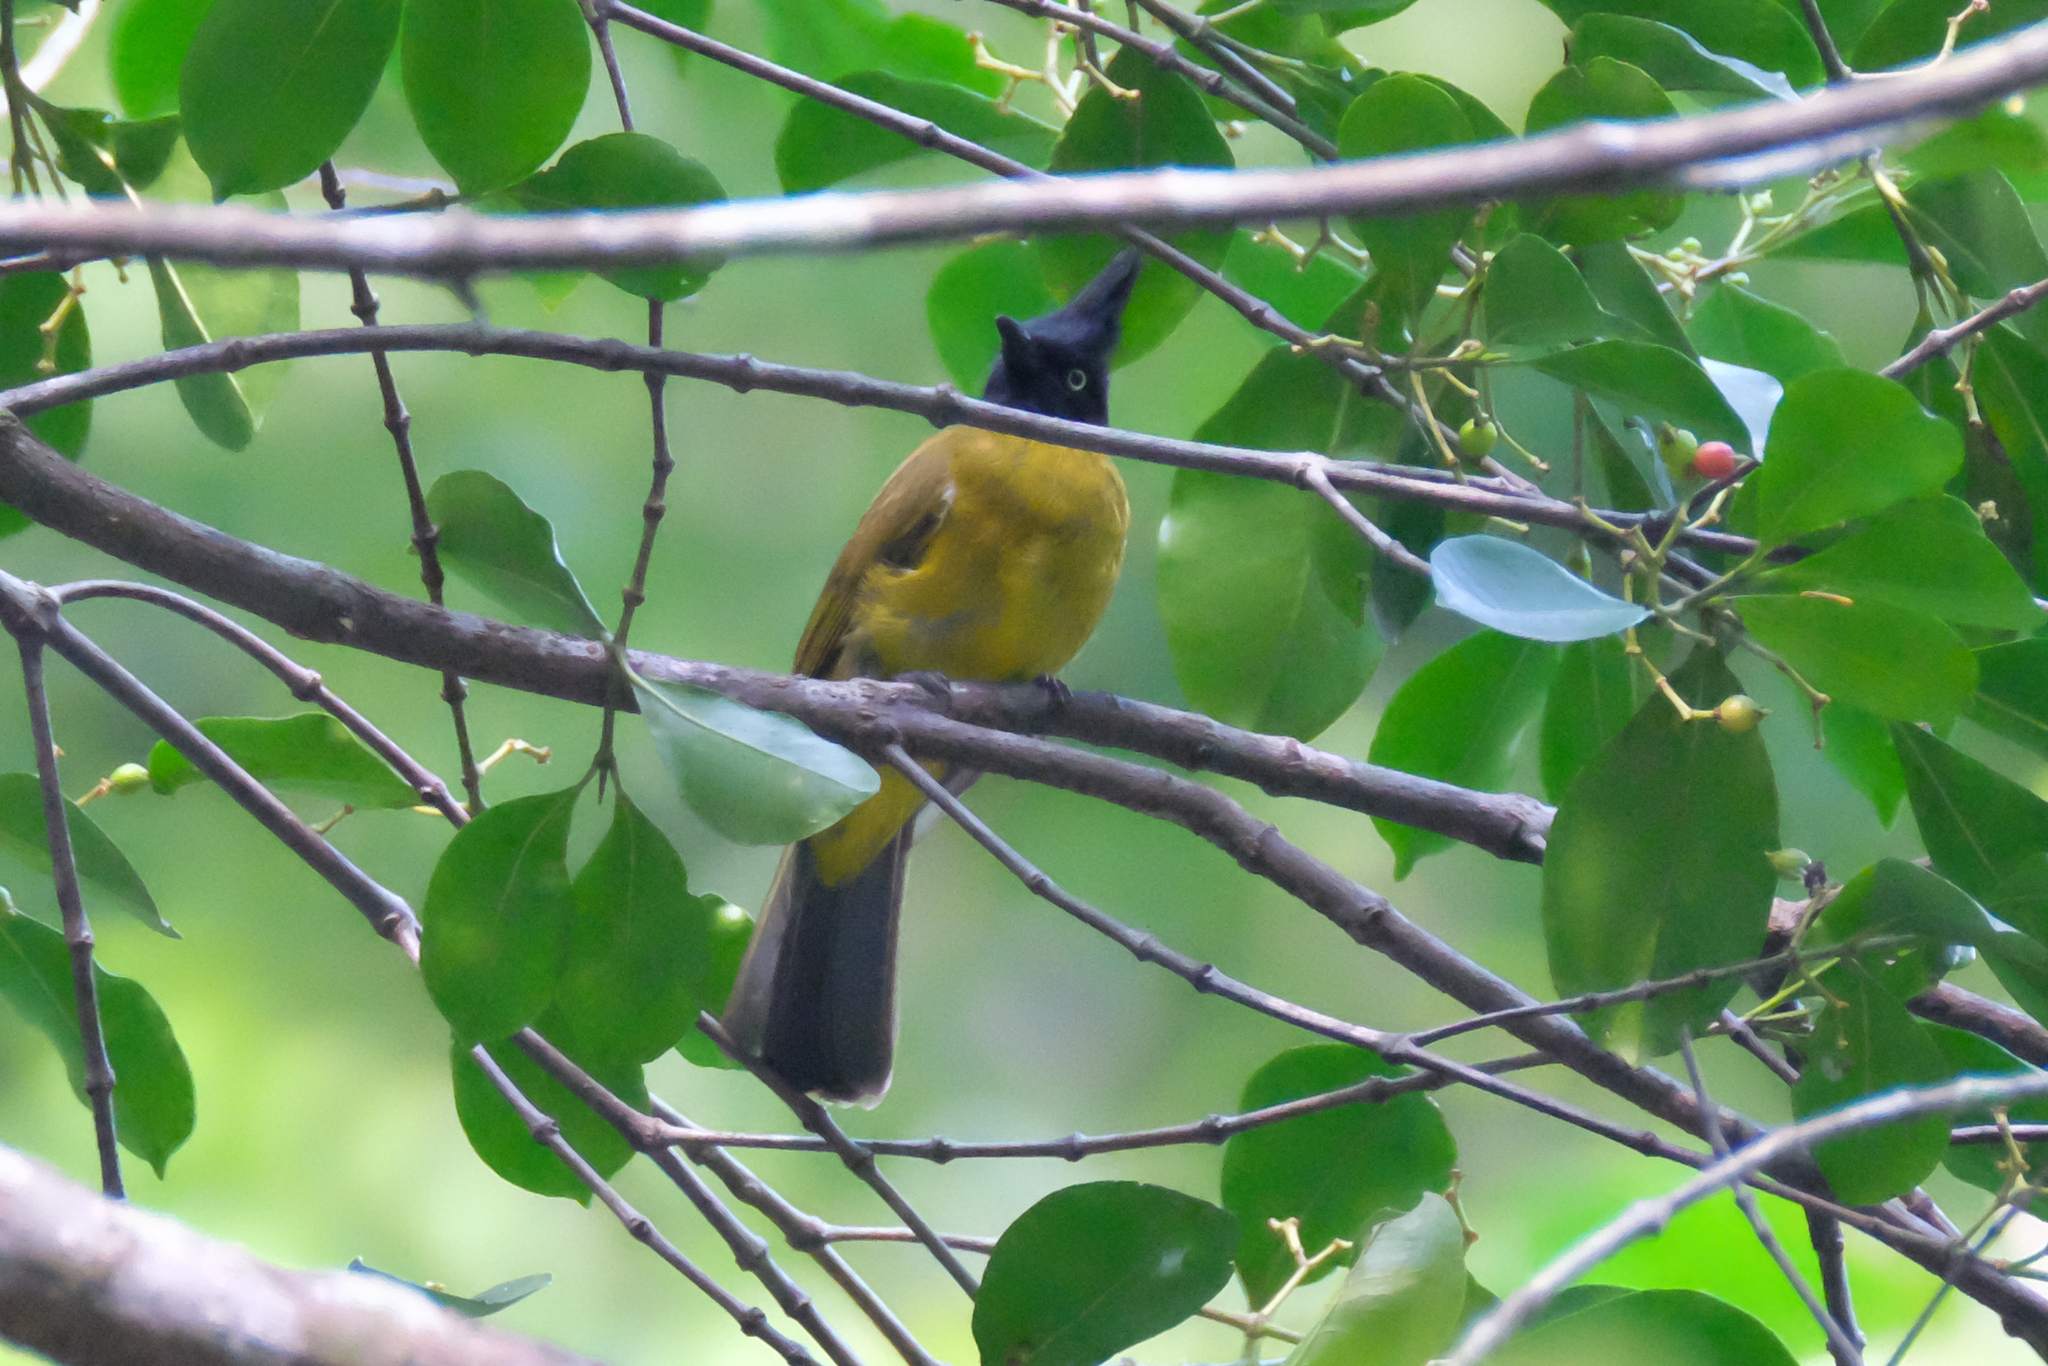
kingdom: Animalia
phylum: Chordata
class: Aves
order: Passeriformes
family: Pycnonotidae
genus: Pycnonotus
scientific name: Pycnonotus flaviventris
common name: Black-crested bulbul
